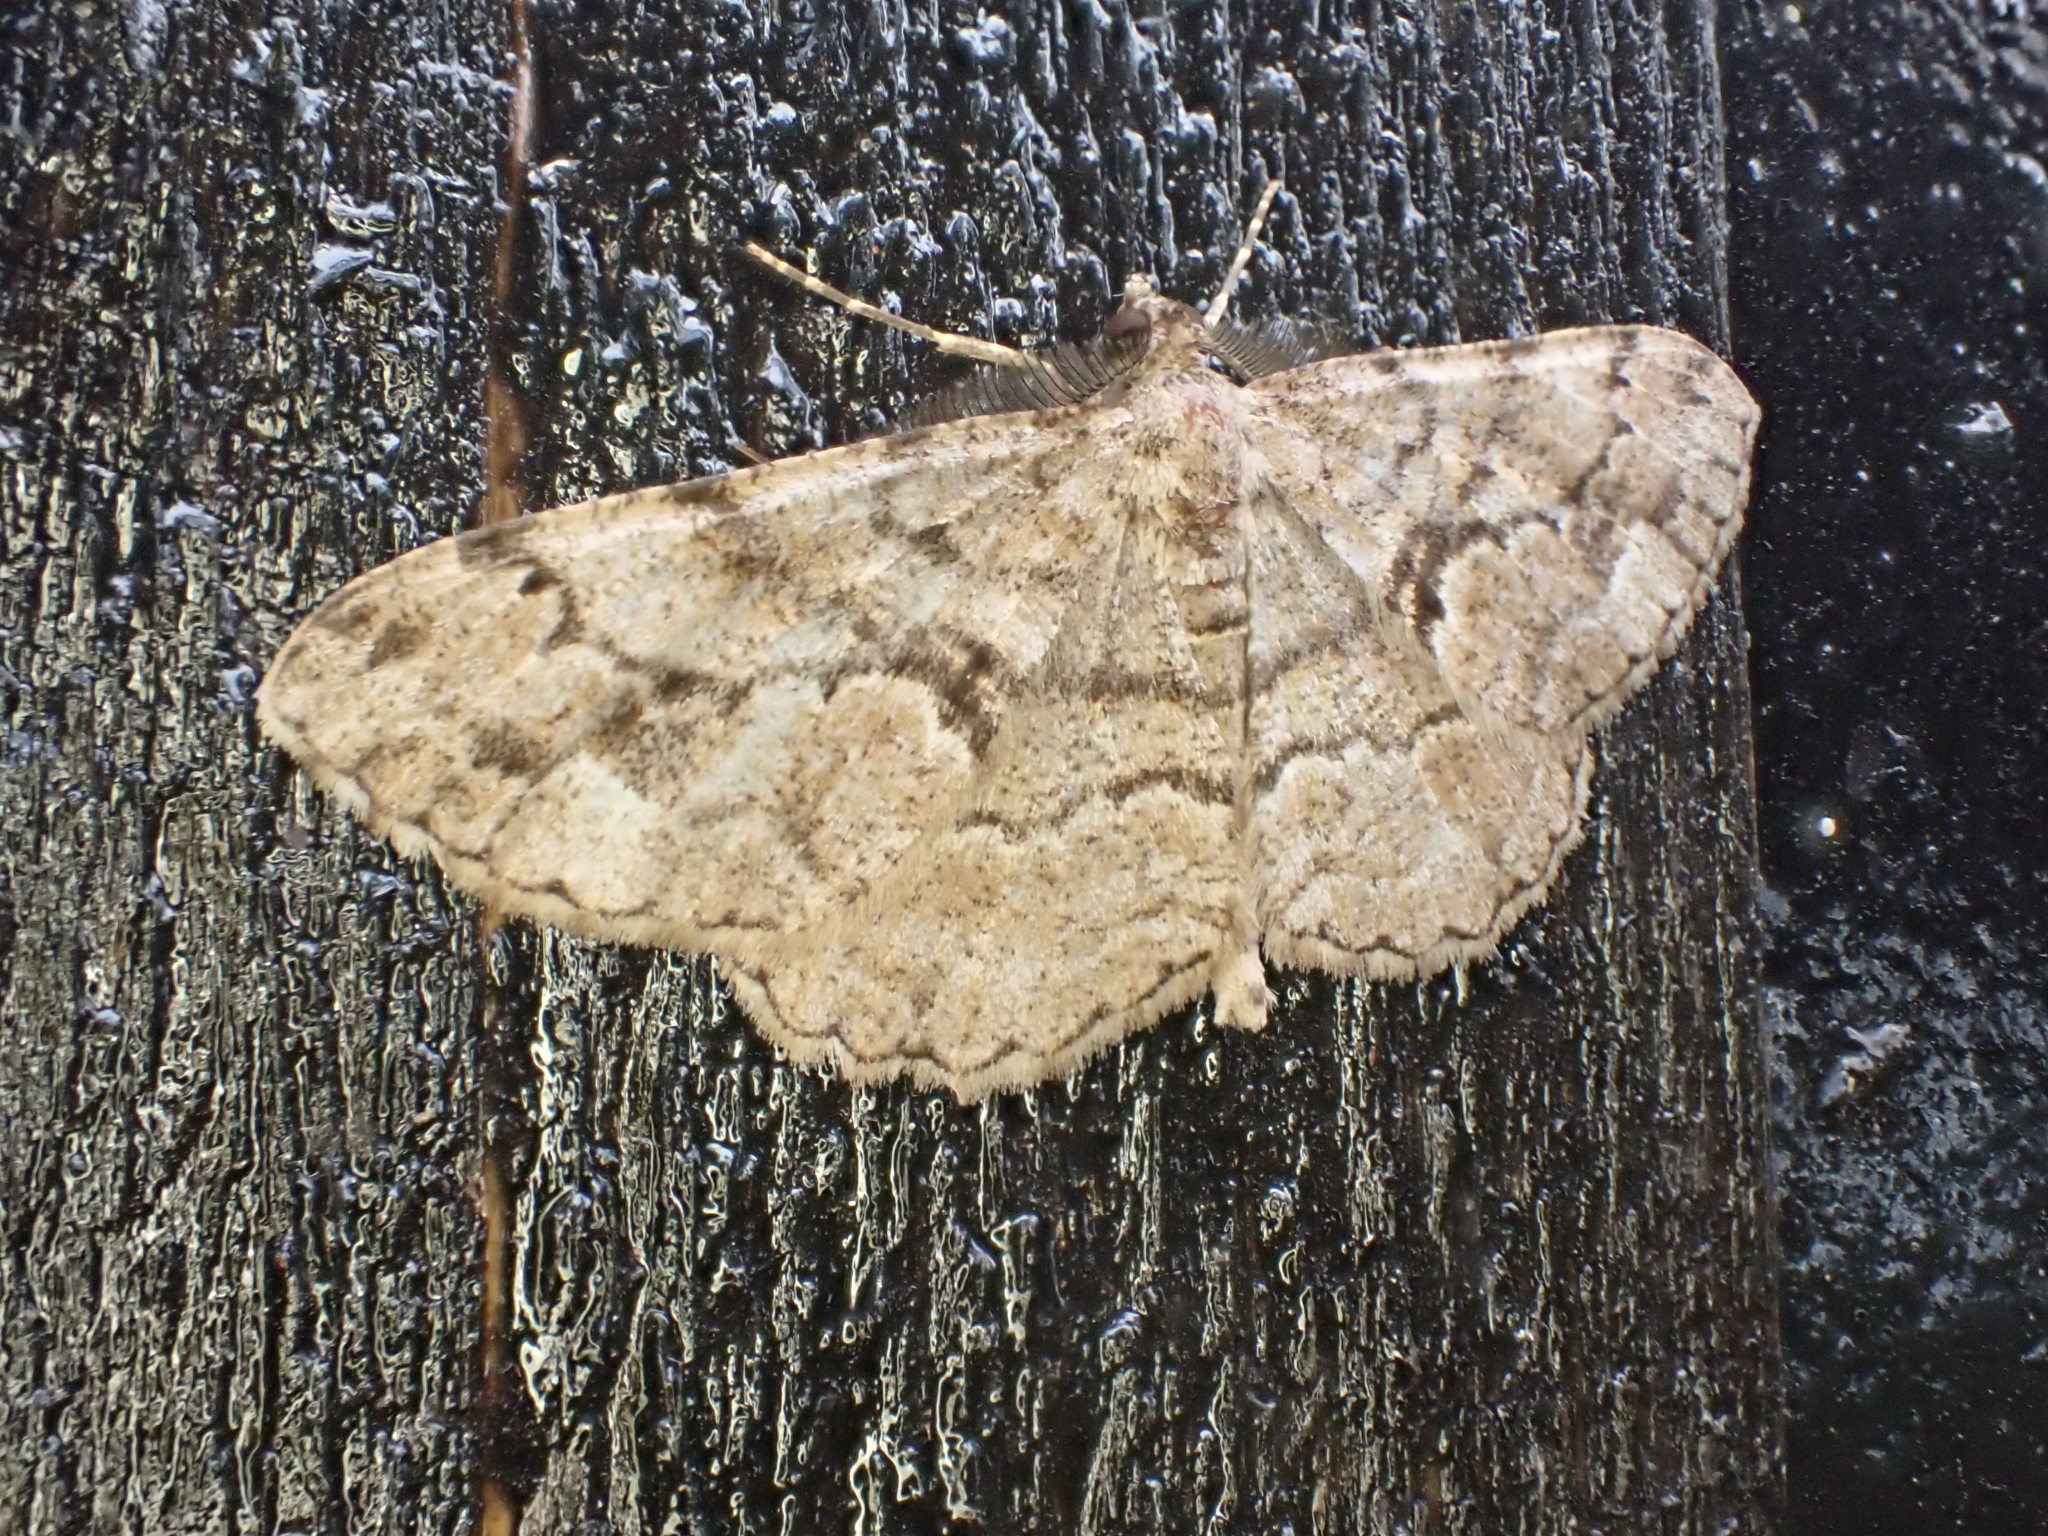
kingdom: Animalia
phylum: Arthropoda
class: Insecta
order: Lepidoptera
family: Geometridae
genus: Peribatodes
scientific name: Peribatodes secundaria
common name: Feathered beauty
